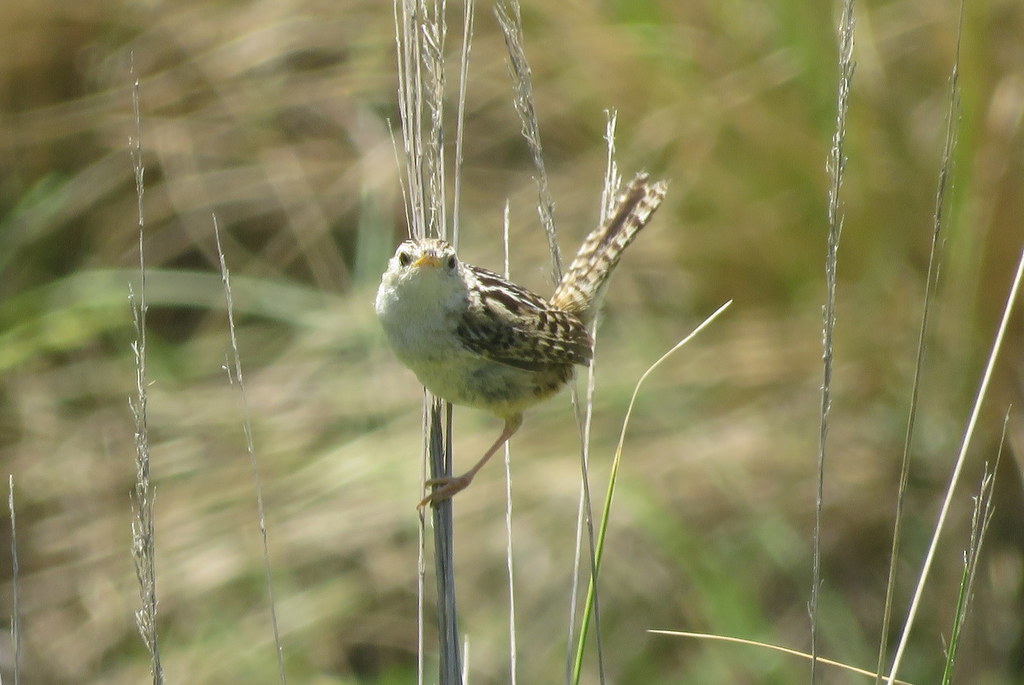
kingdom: Animalia
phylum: Chordata
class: Aves
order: Passeriformes
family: Troglodytidae
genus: Cistothorus
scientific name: Cistothorus platensis
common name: Sedge wren
